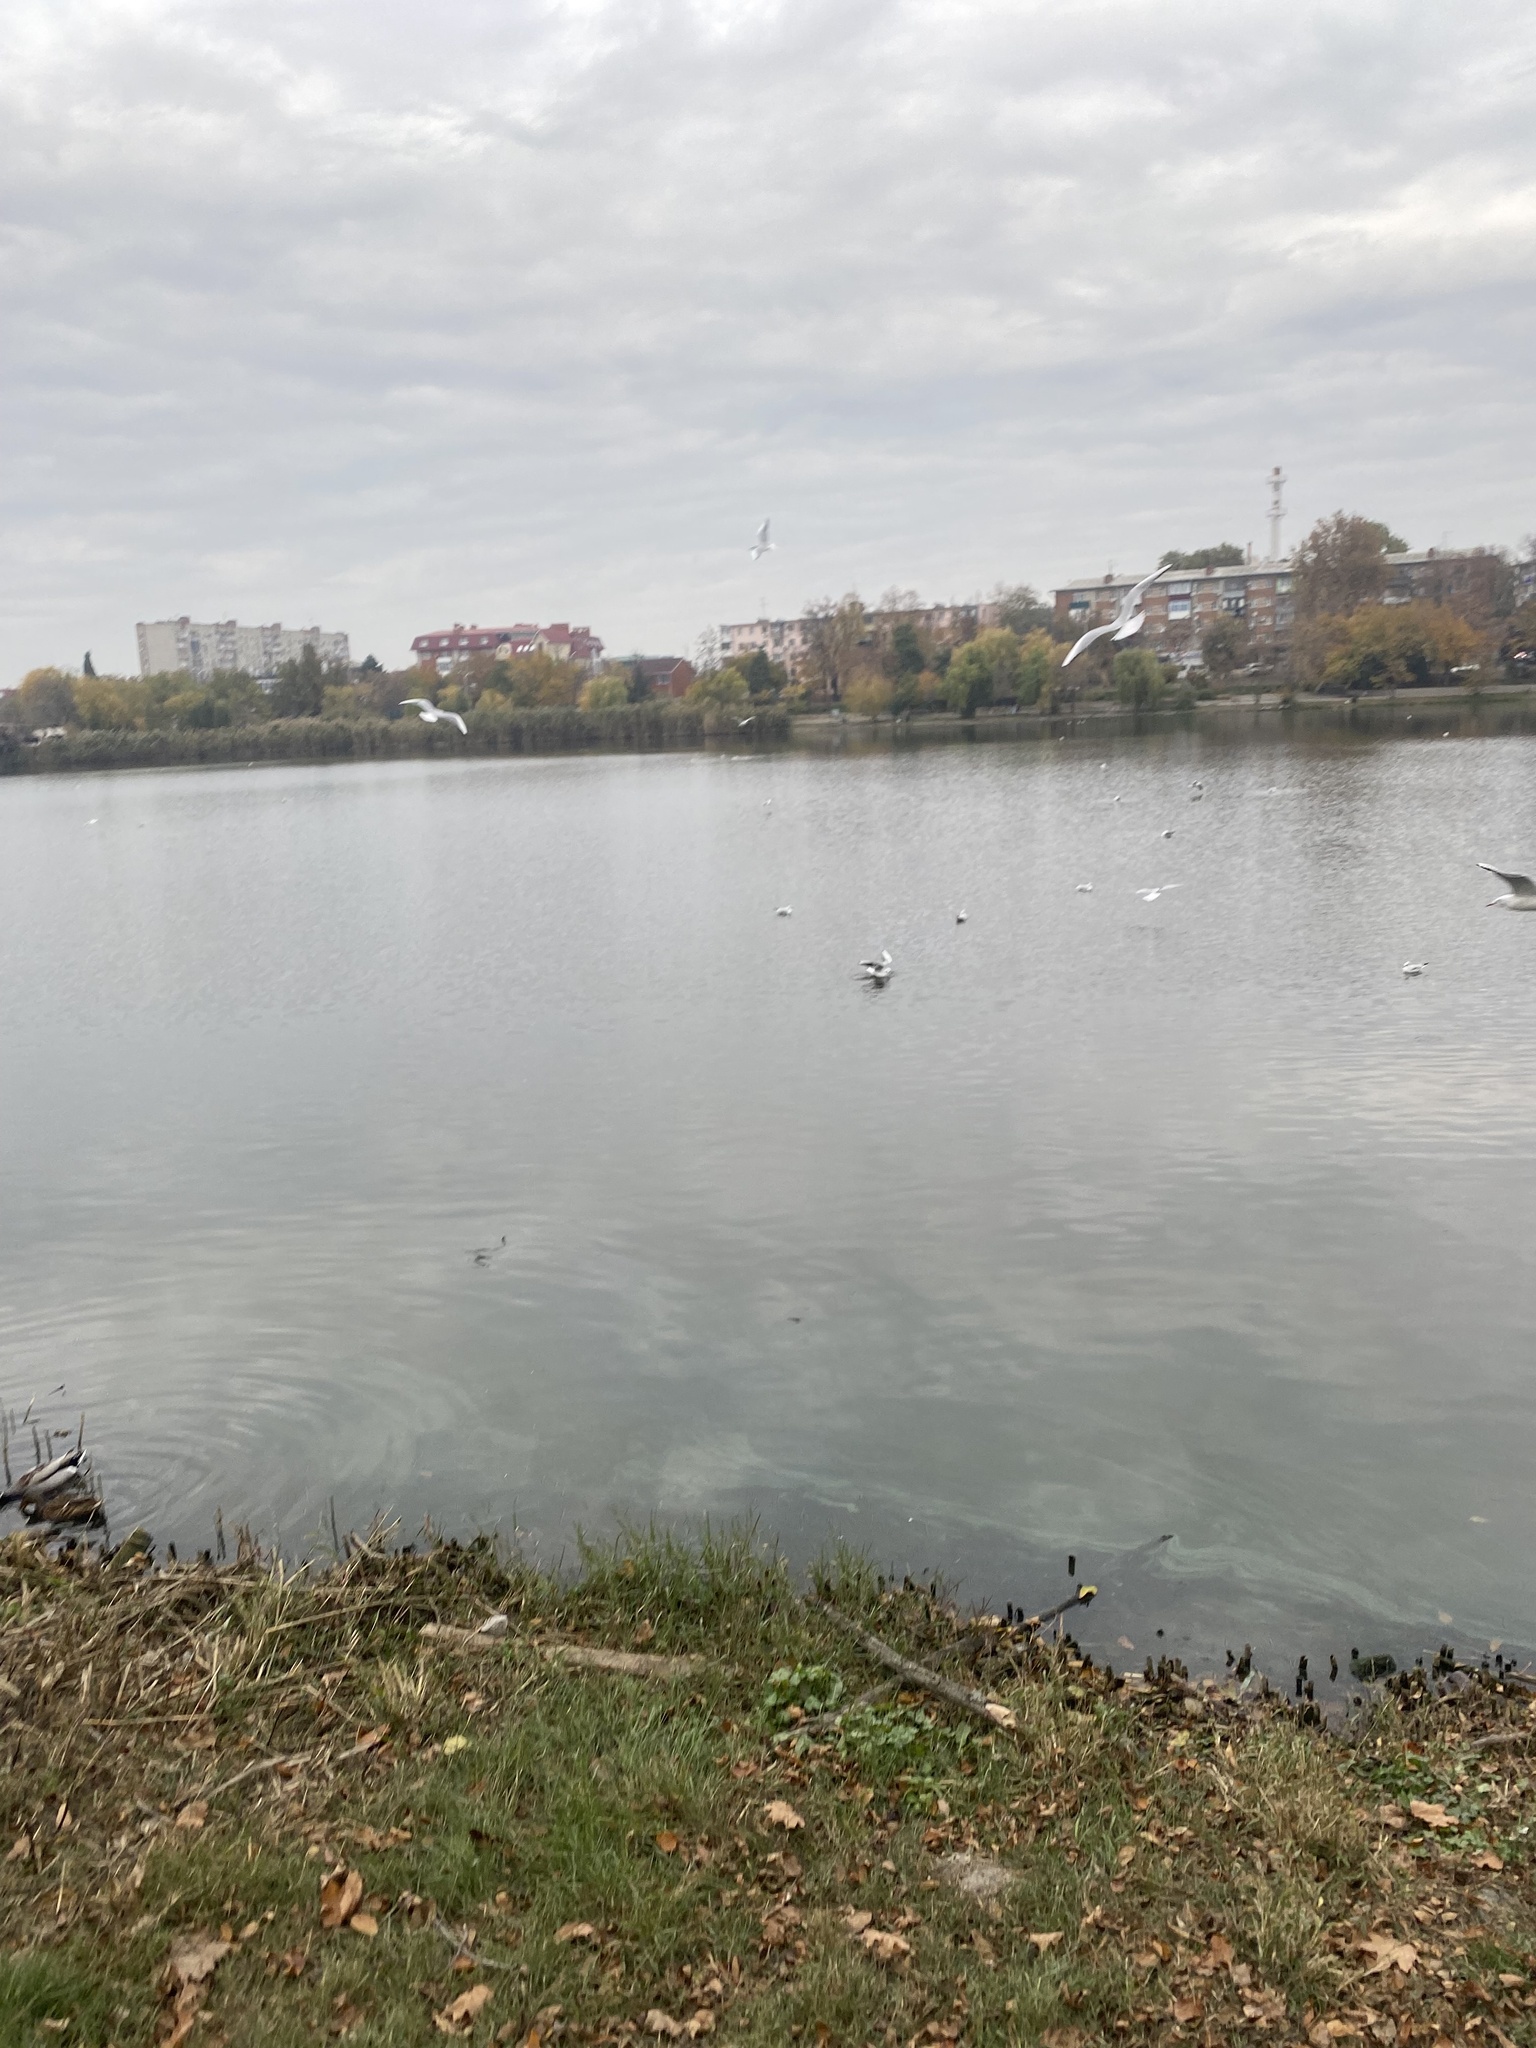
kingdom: Animalia
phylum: Chordata
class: Aves
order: Charadriiformes
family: Laridae
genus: Chroicocephalus
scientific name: Chroicocephalus ridibundus
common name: Black-headed gull
